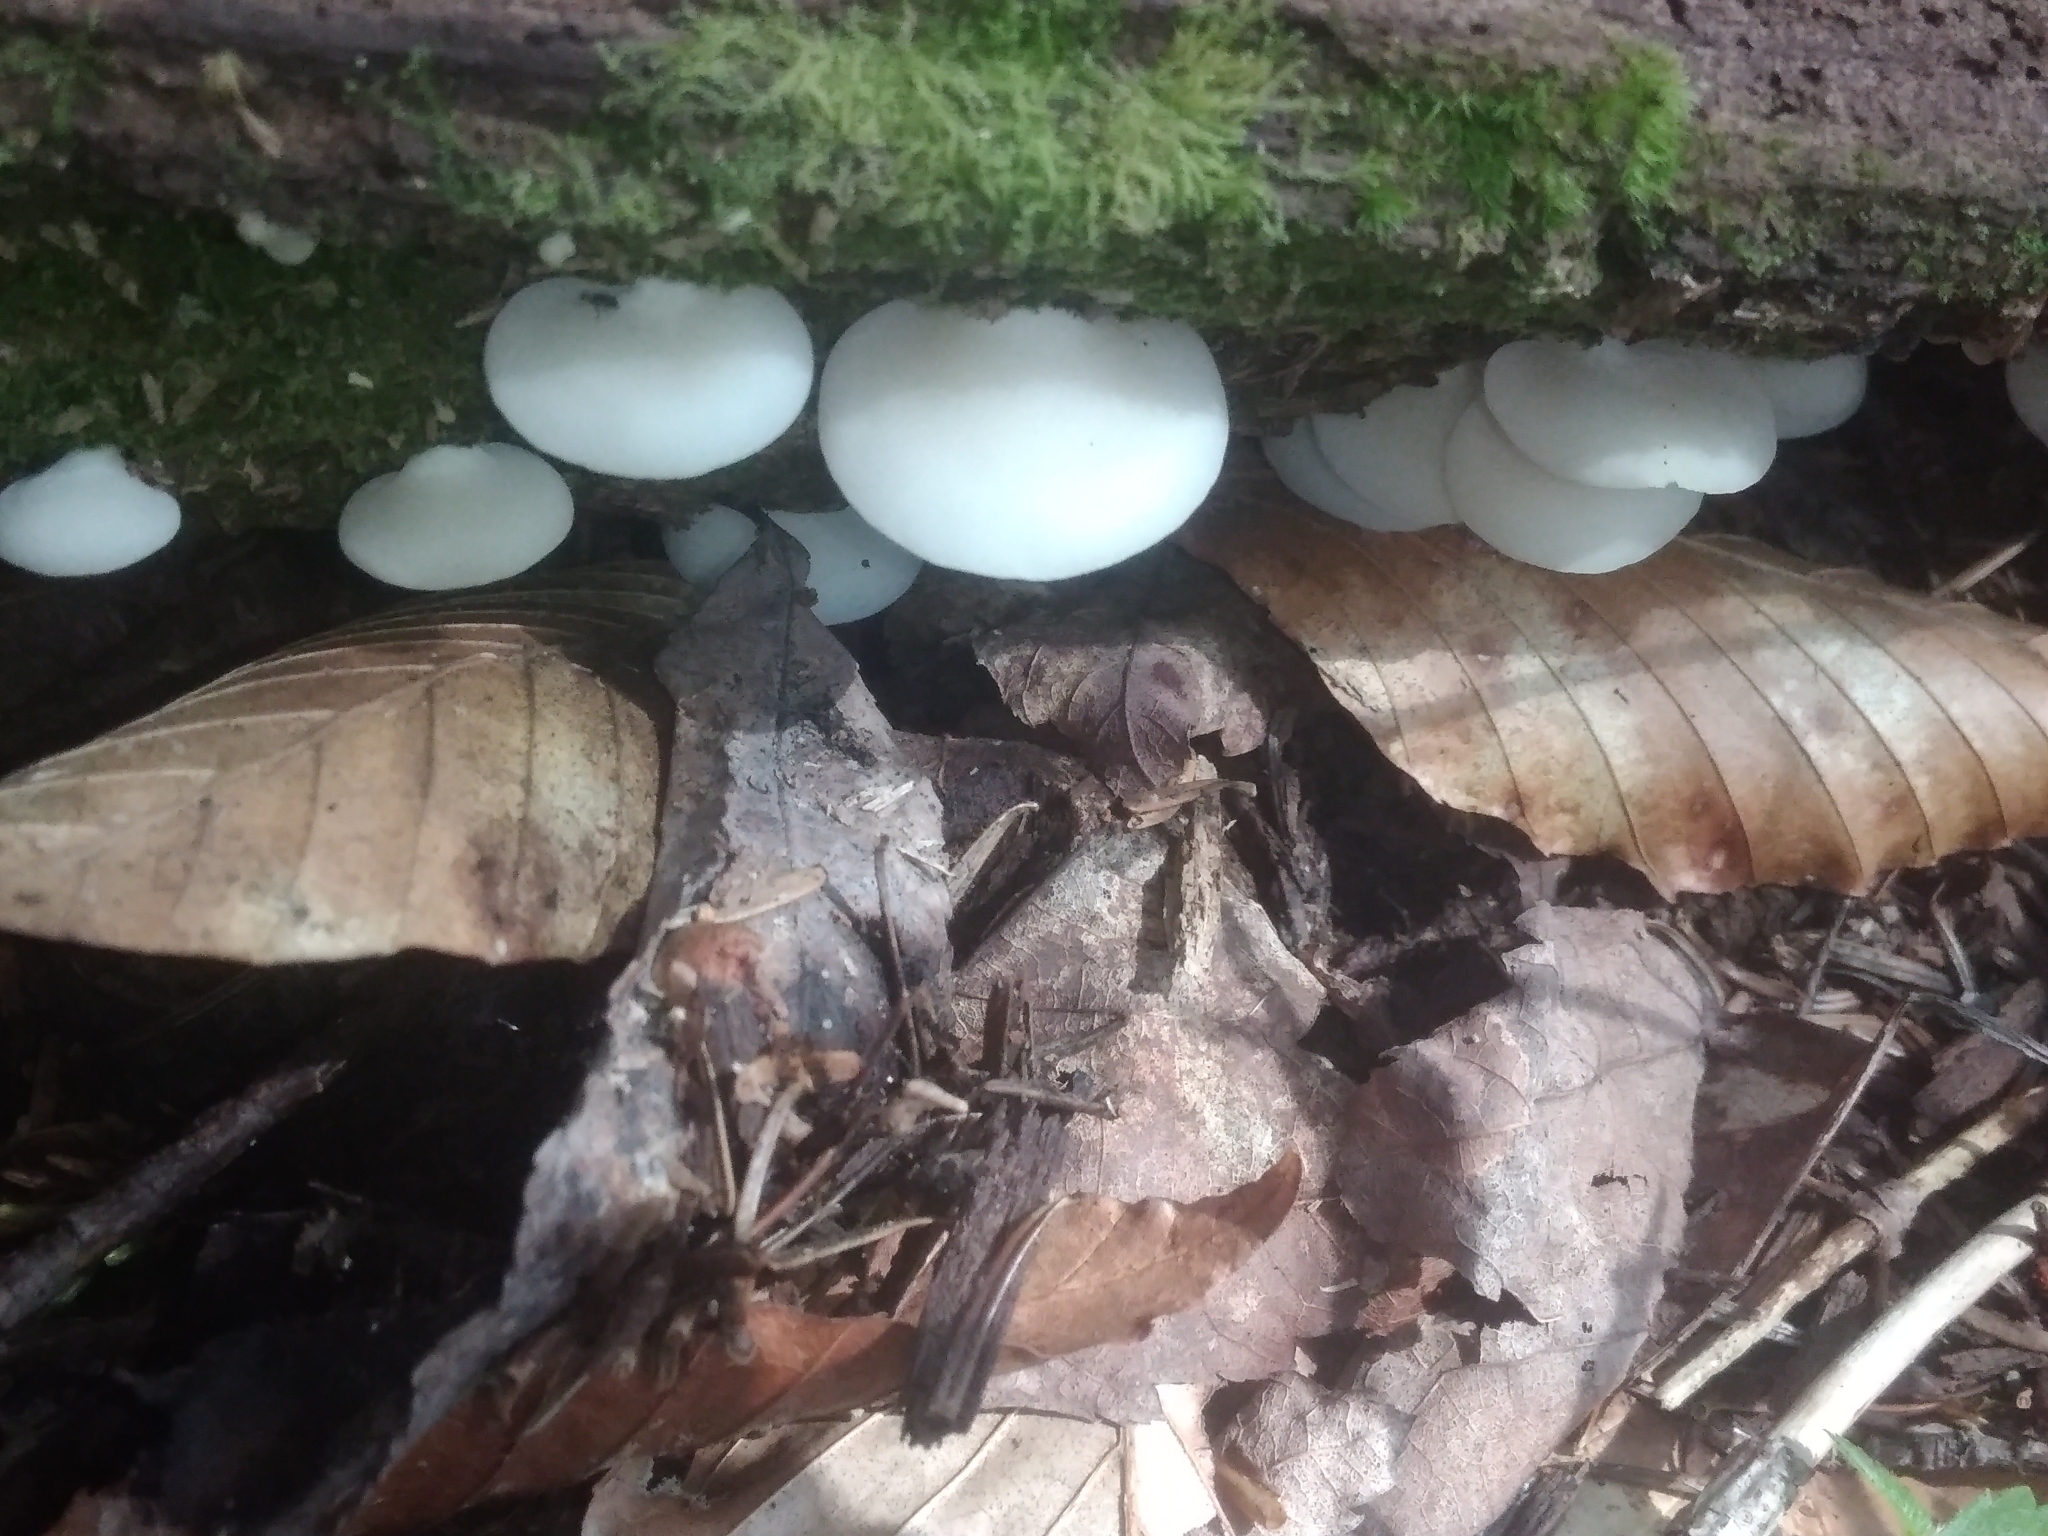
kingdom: Fungi
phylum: Basidiomycota
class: Agaricomycetes
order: Agaricales
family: Crepidotaceae
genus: Crepidotus
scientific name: Crepidotus mollis
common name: Peeling oysterling
